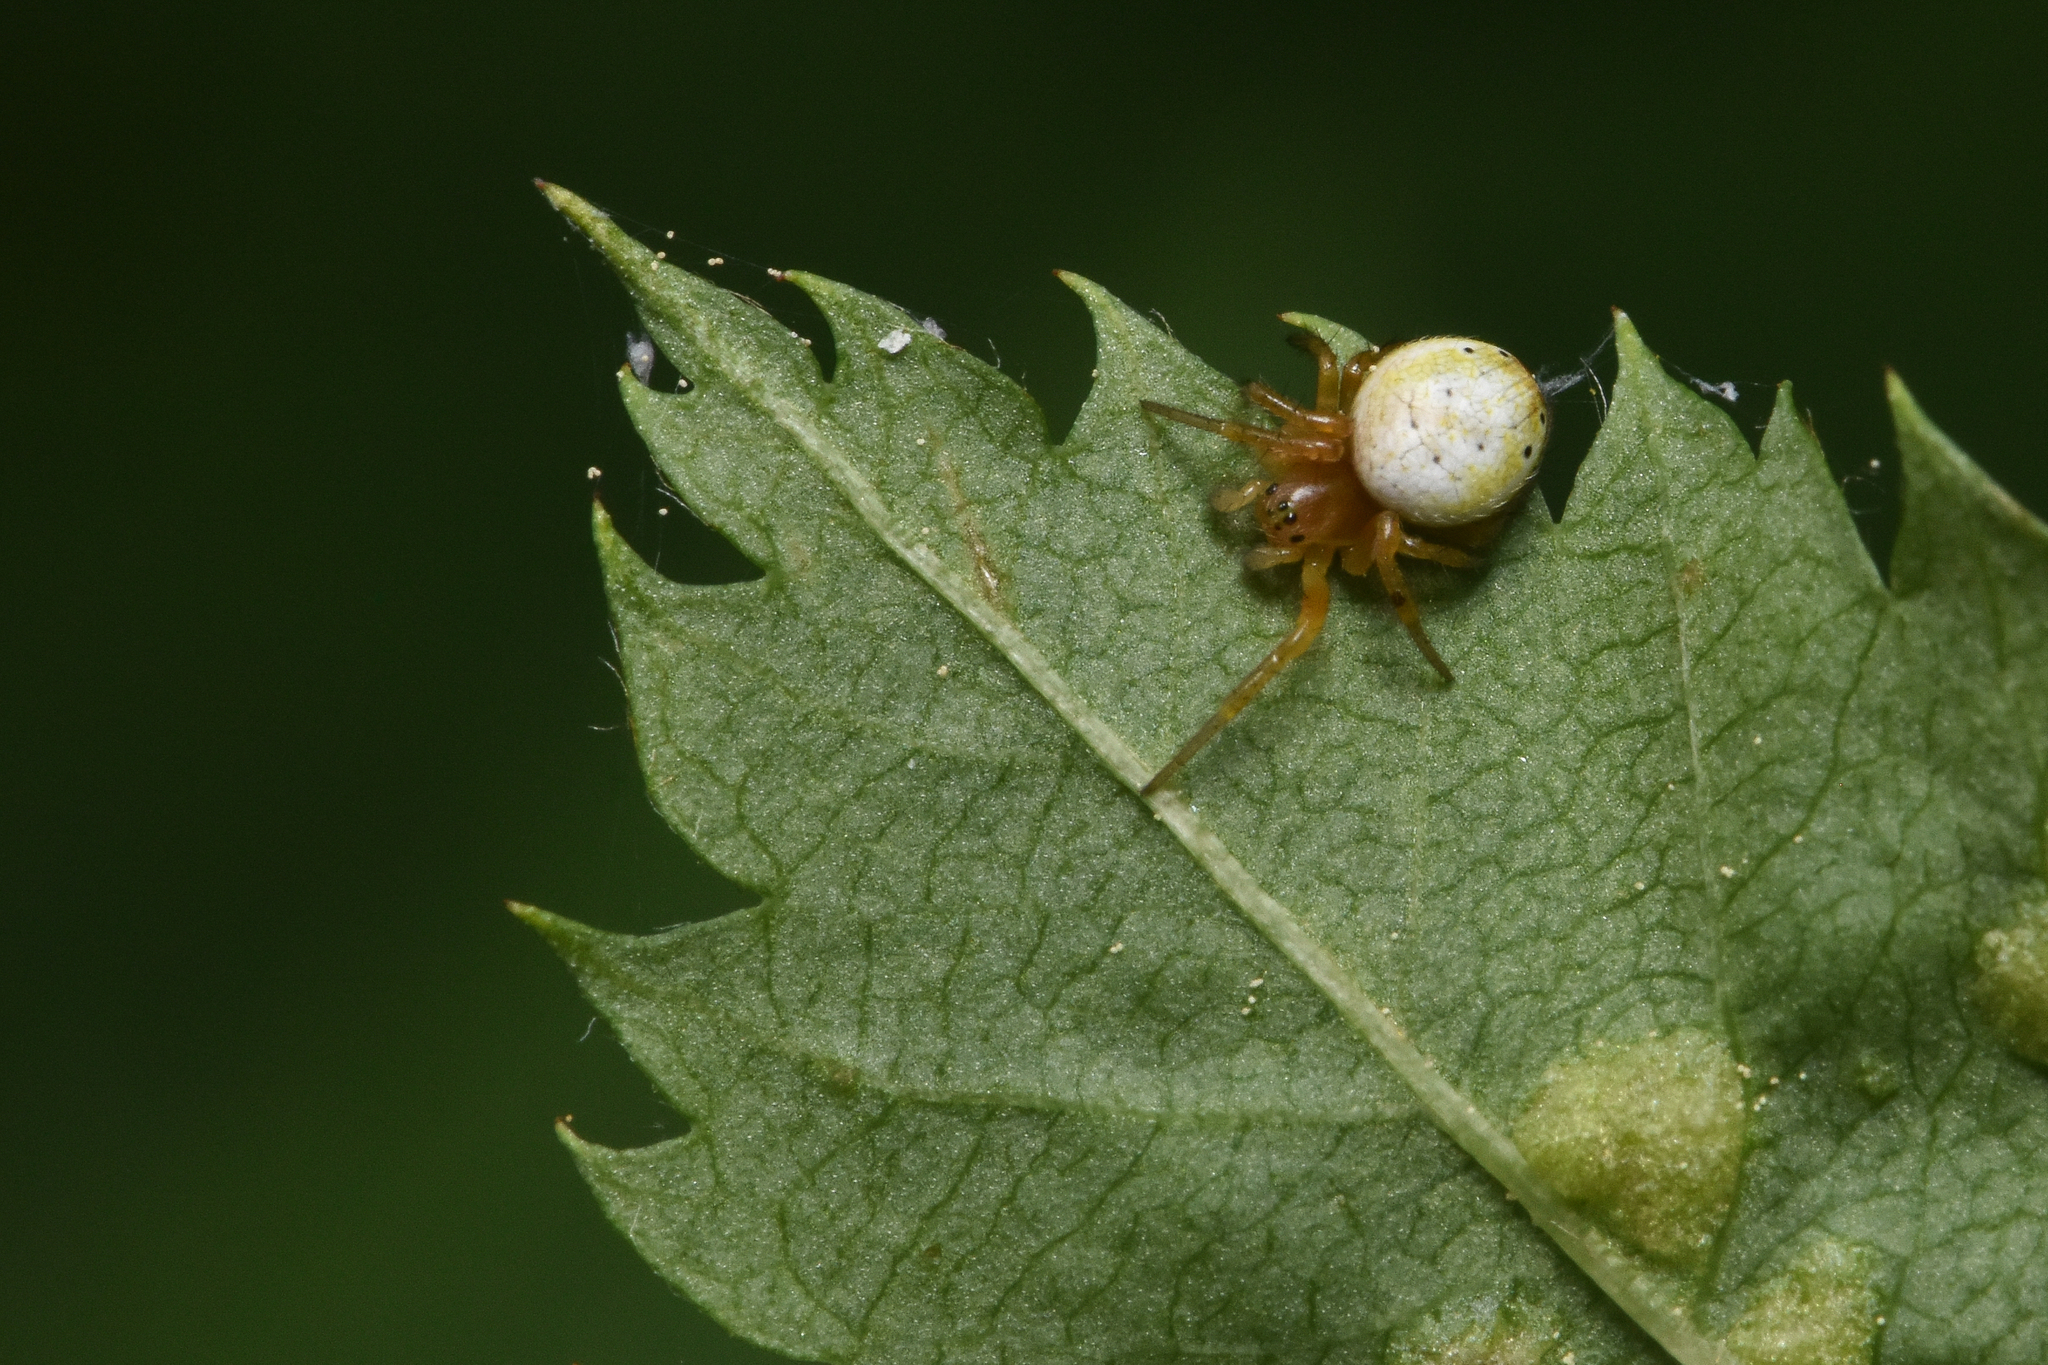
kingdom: Animalia
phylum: Arthropoda
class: Arachnida
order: Araneae
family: Araneidae
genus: Araniella
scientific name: Araniella displicata
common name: Sixspotted orb weaver
